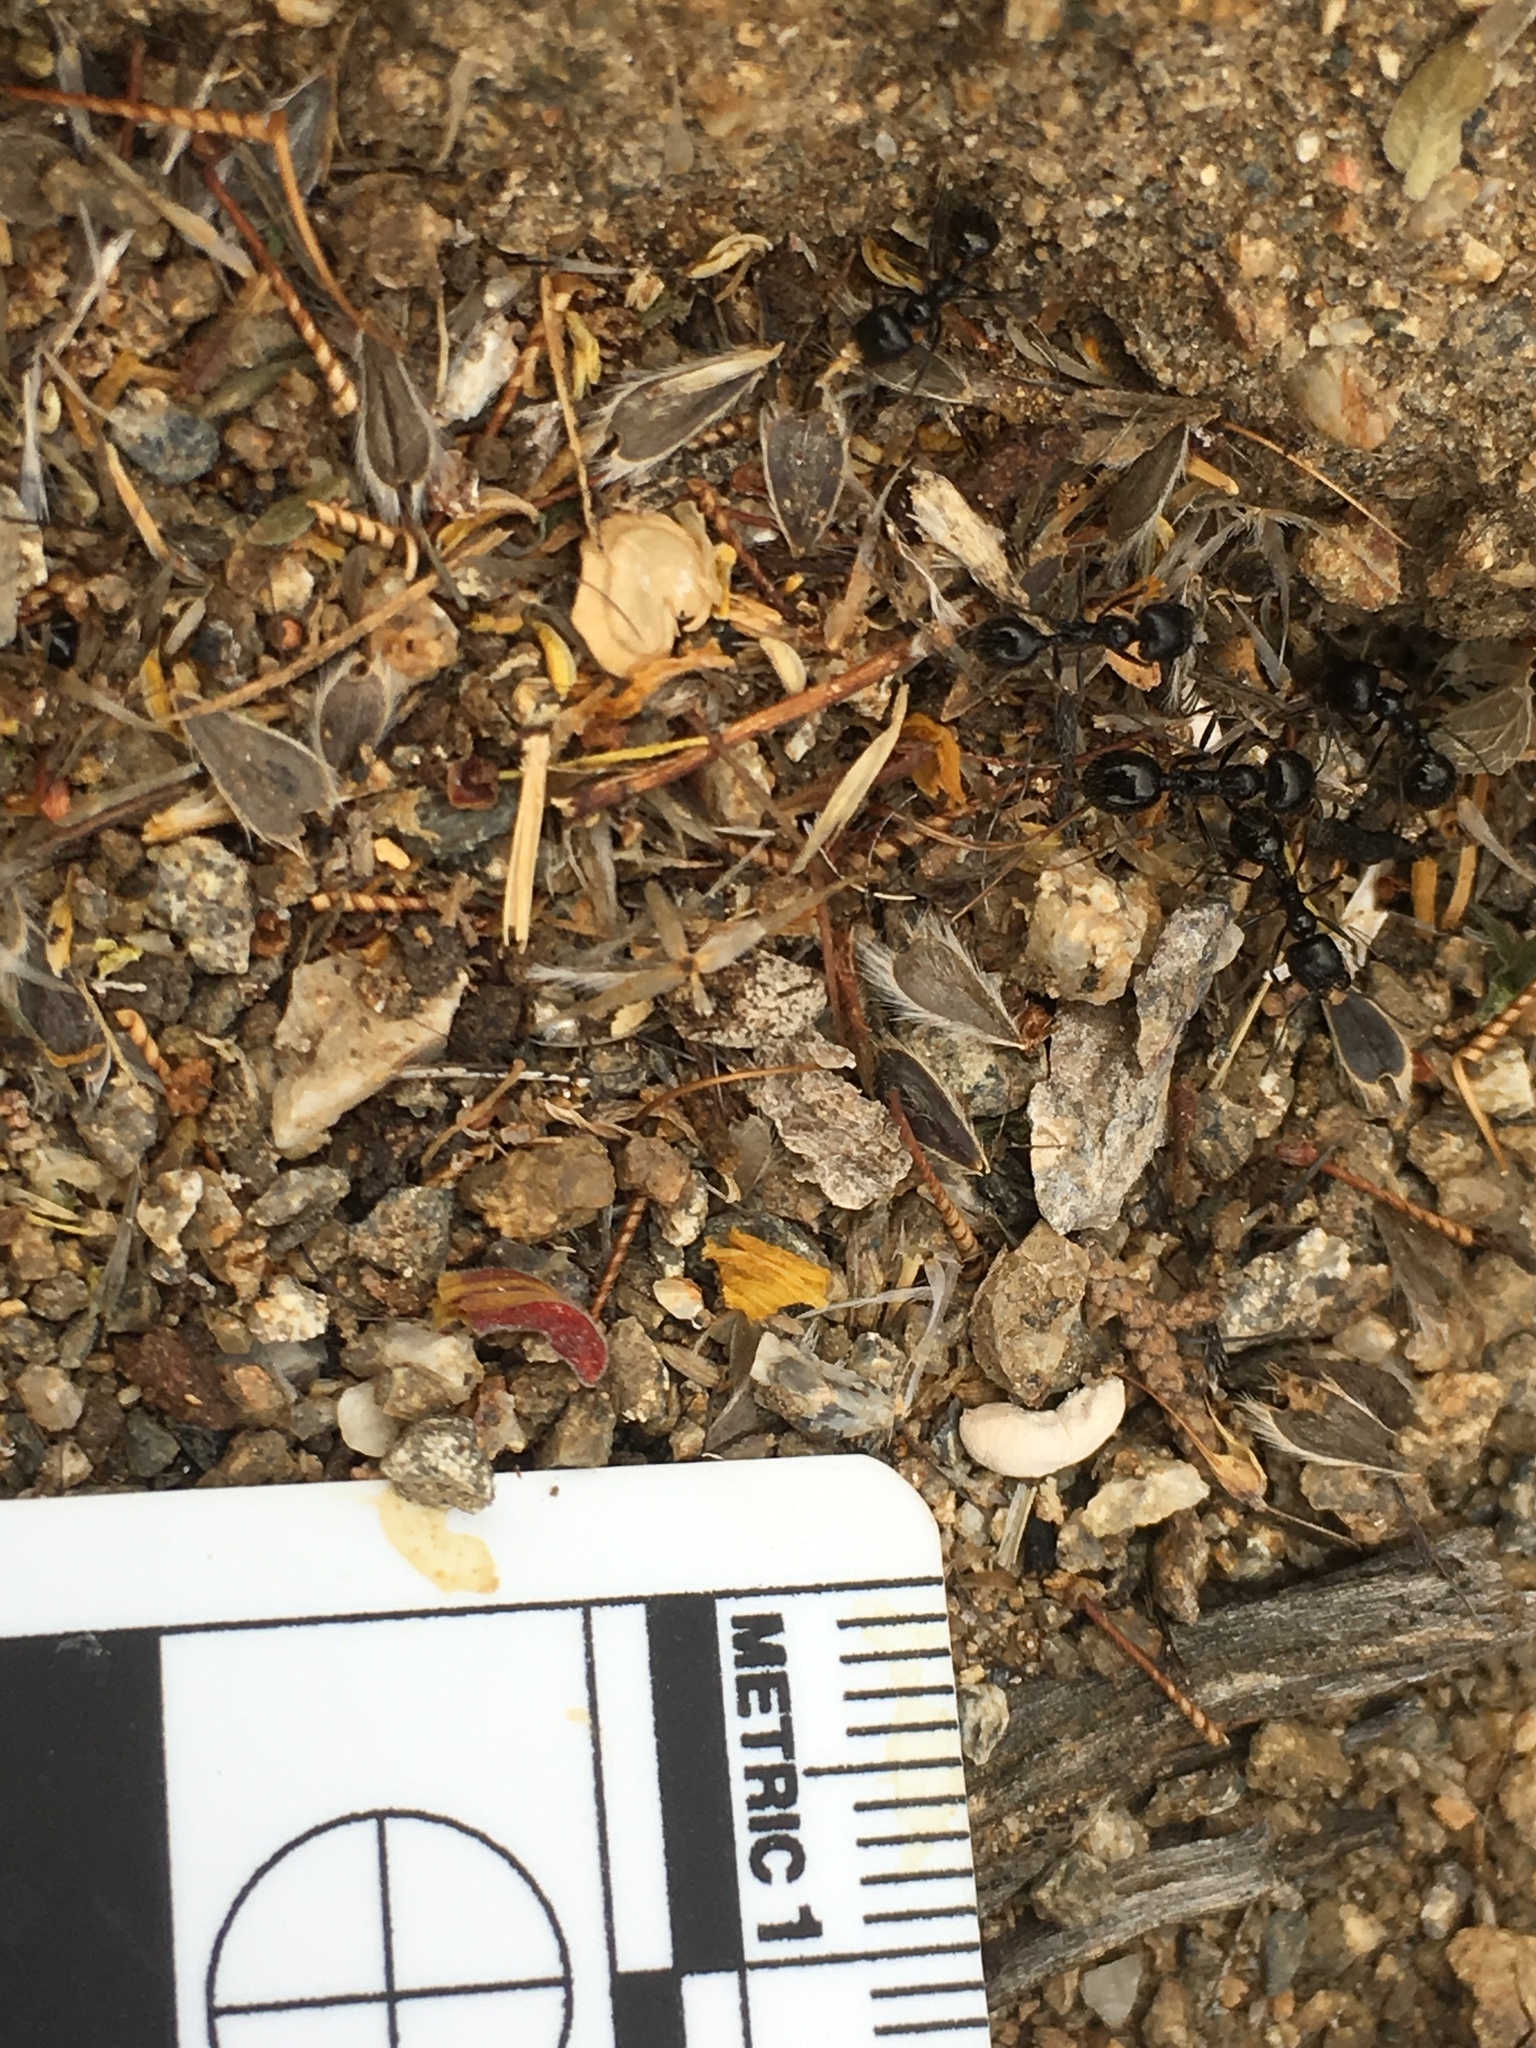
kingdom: Animalia
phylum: Arthropoda
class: Insecta
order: Hymenoptera
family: Formicidae
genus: Messor
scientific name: Messor pergandei
